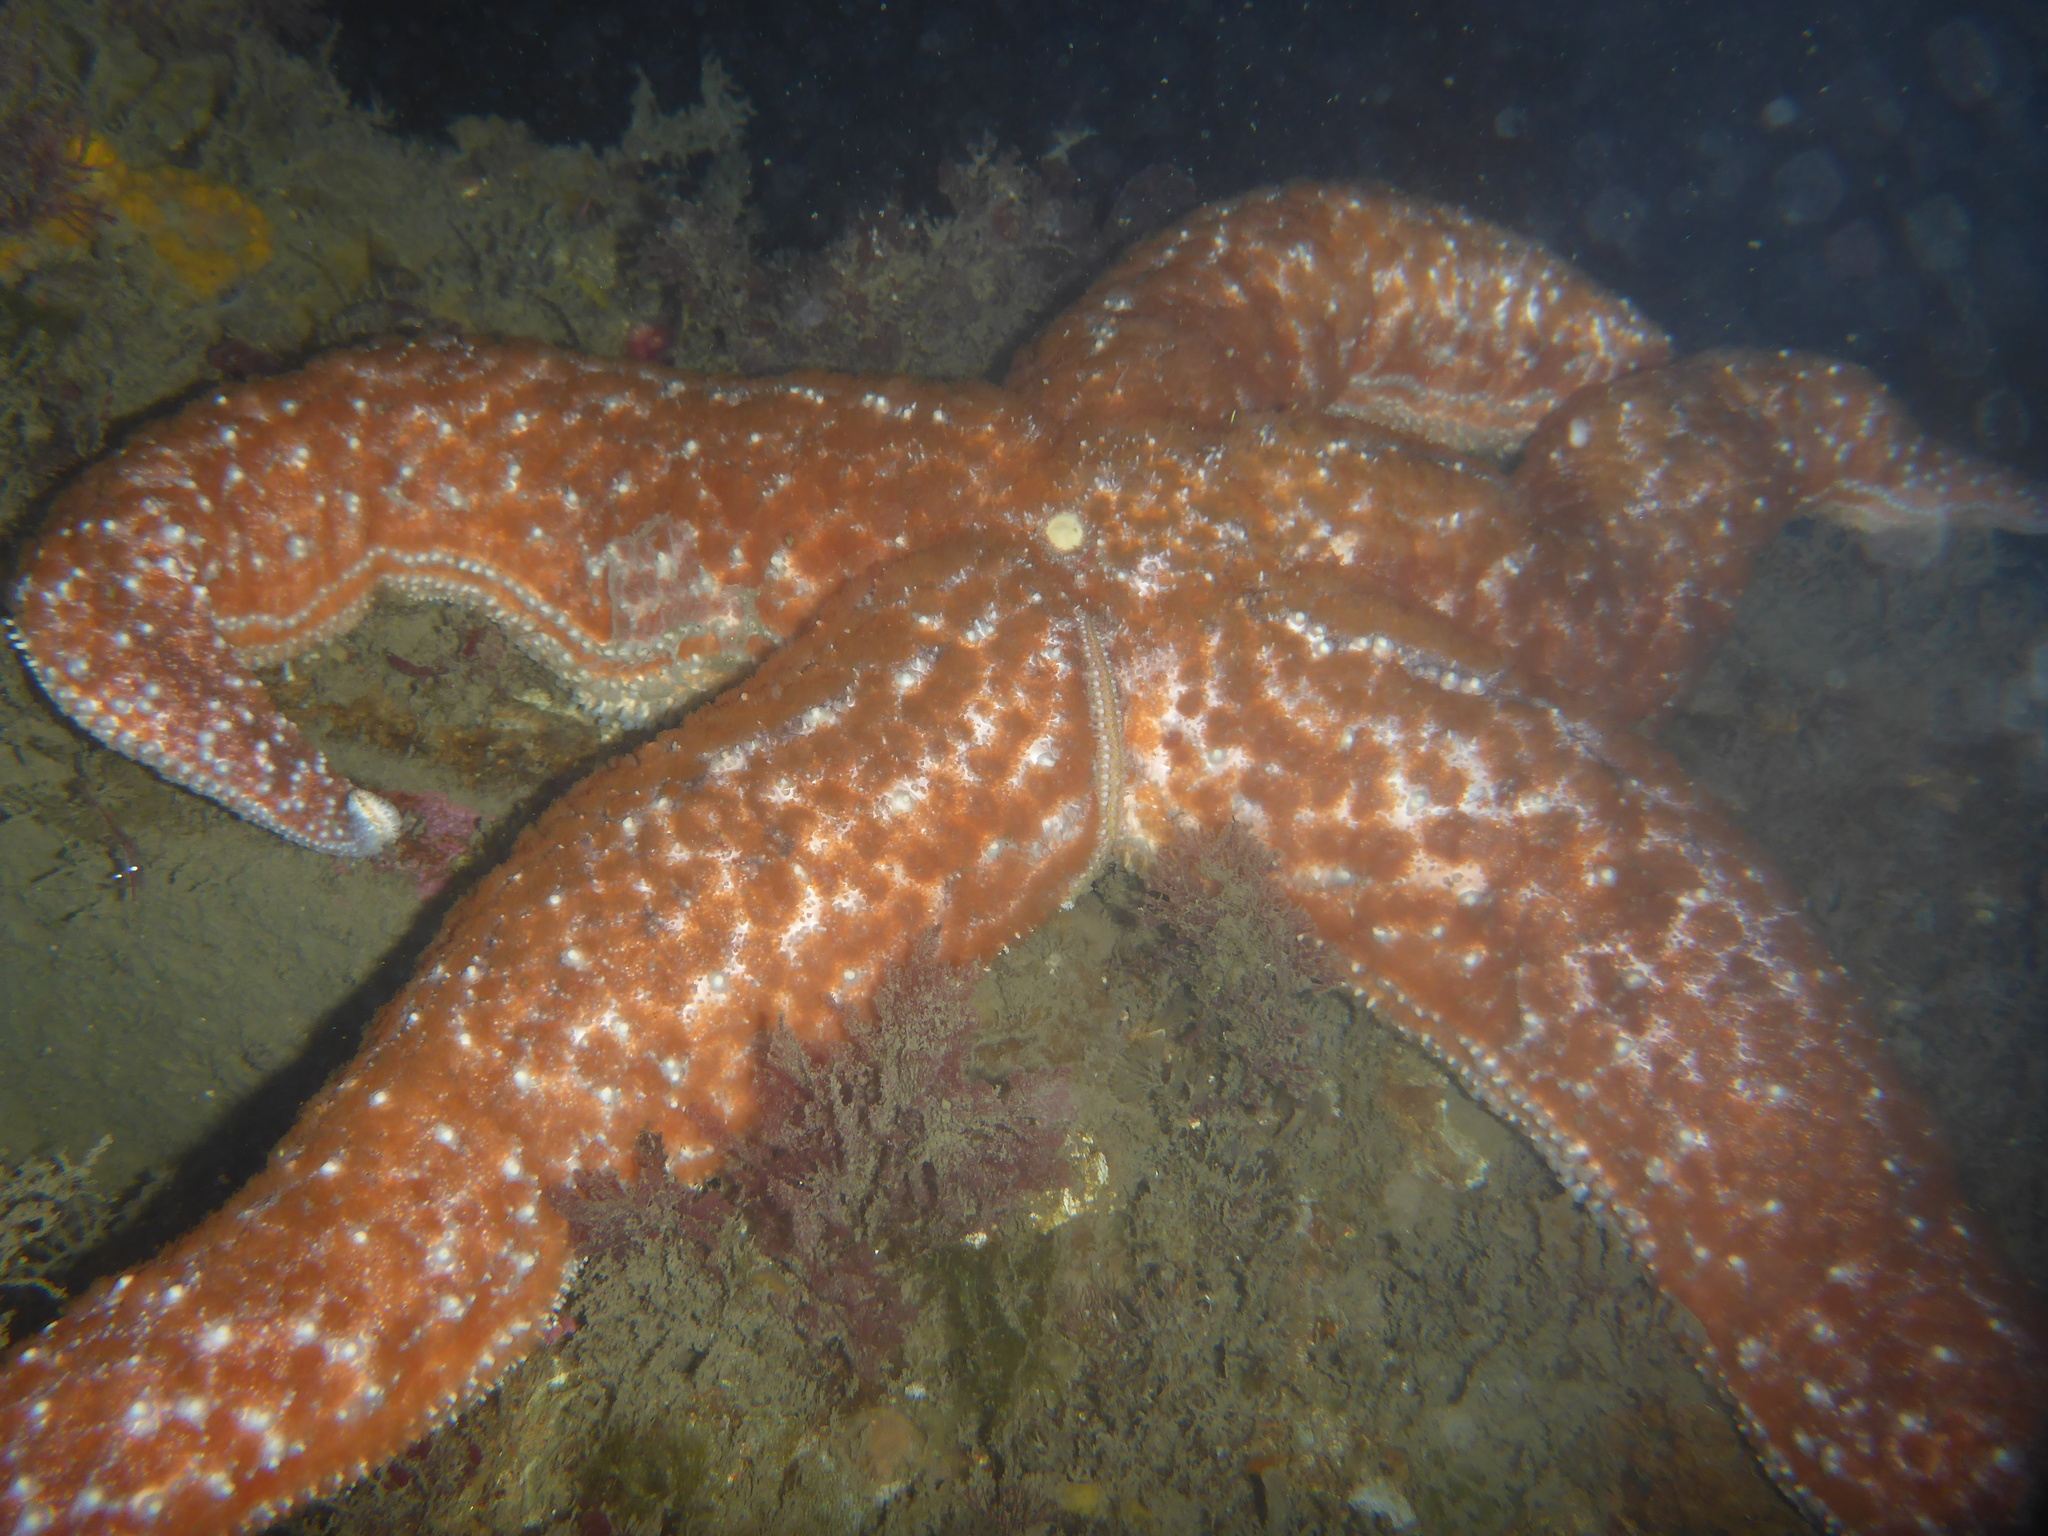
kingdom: Animalia
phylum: Echinodermata
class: Asteroidea
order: Forcipulatida
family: Asteriidae
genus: Evasterias
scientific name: Evasterias troschelii
